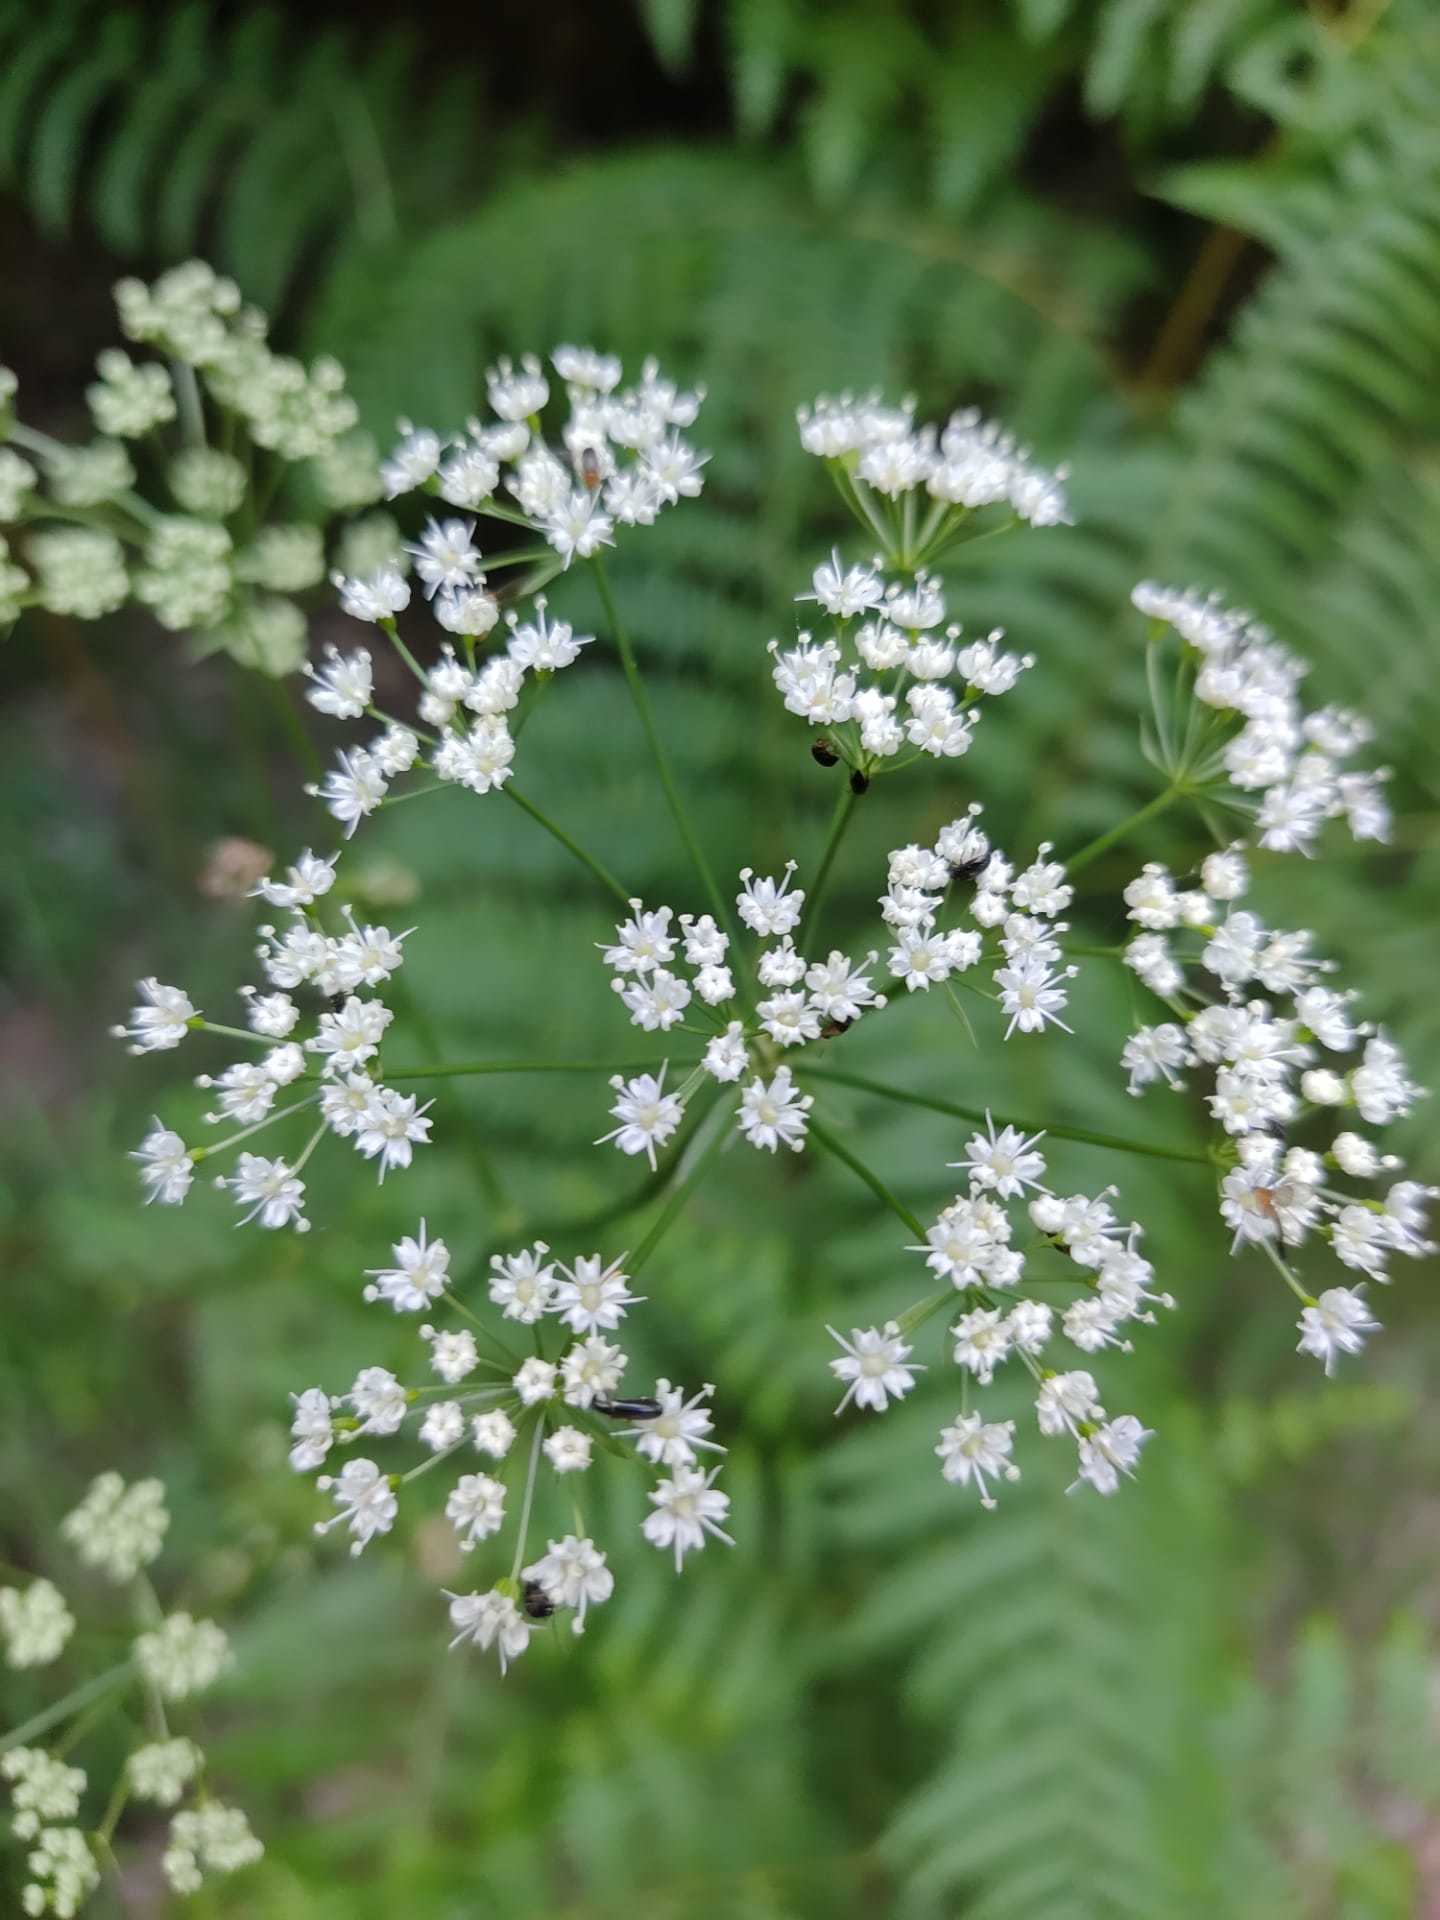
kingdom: Plantae
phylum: Tracheophyta
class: Magnoliopsida
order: Apiales
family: Apiaceae
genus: Physospermum
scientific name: Physospermum cornubiense
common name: Bladderseed
